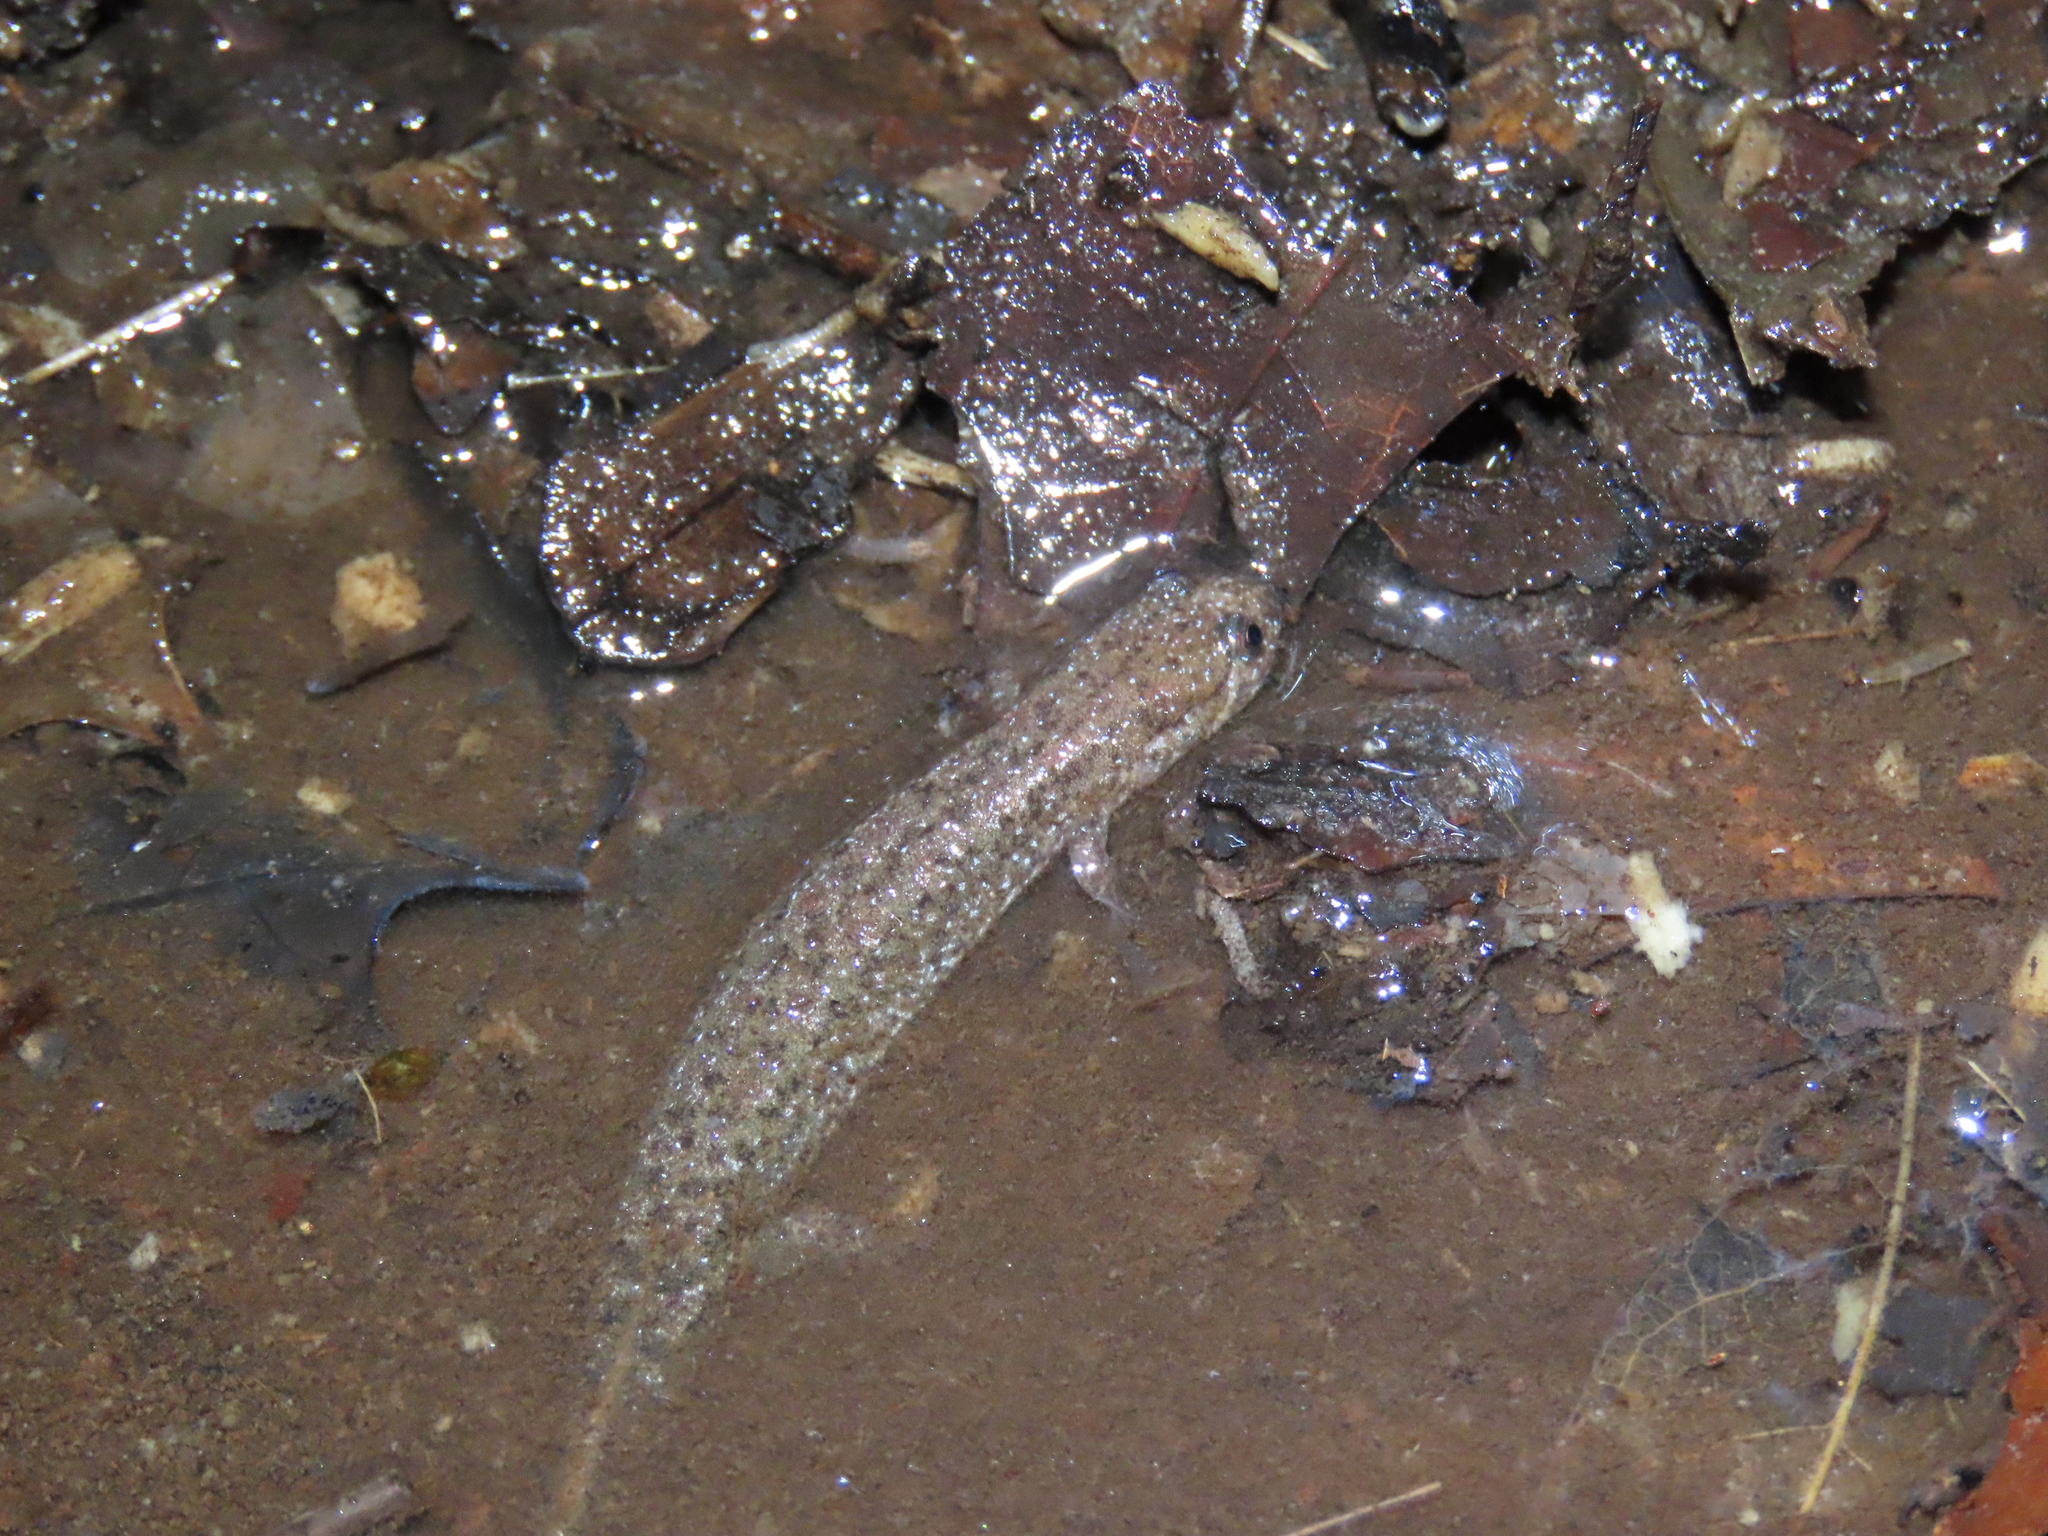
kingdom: Animalia
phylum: Chordata
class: Amphibia
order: Caudata
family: Plethodontidae
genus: Desmognathus
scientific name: Desmognathus fuscus
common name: Northern dusky salamander
